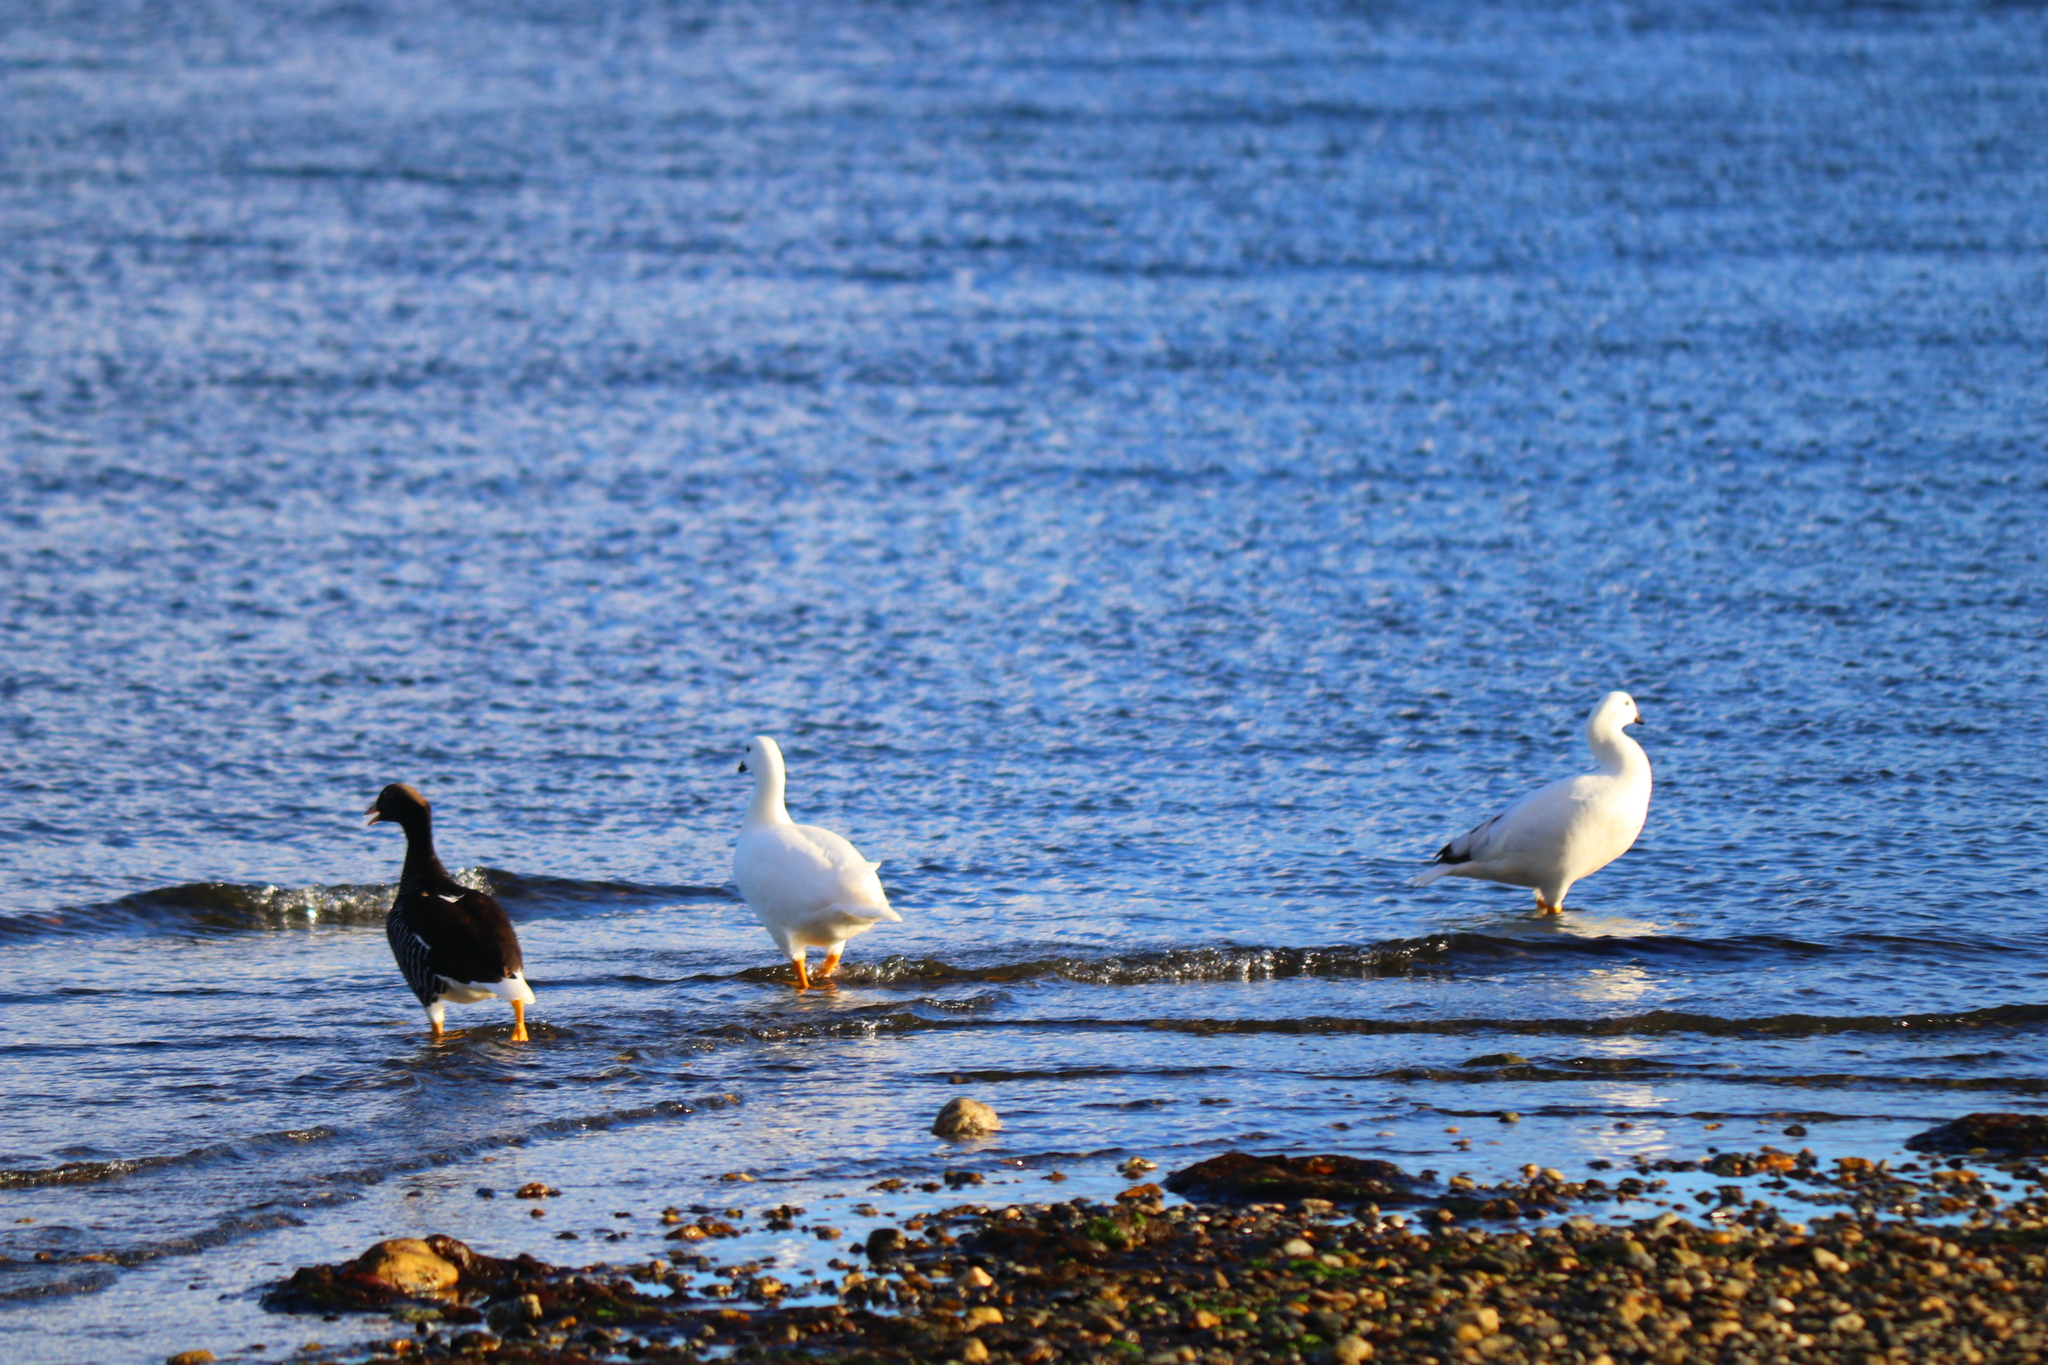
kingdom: Animalia
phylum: Chordata
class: Aves
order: Anseriformes
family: Anatidae
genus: Chloephaga
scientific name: Chloephaga hybrida
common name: Kelp goose
